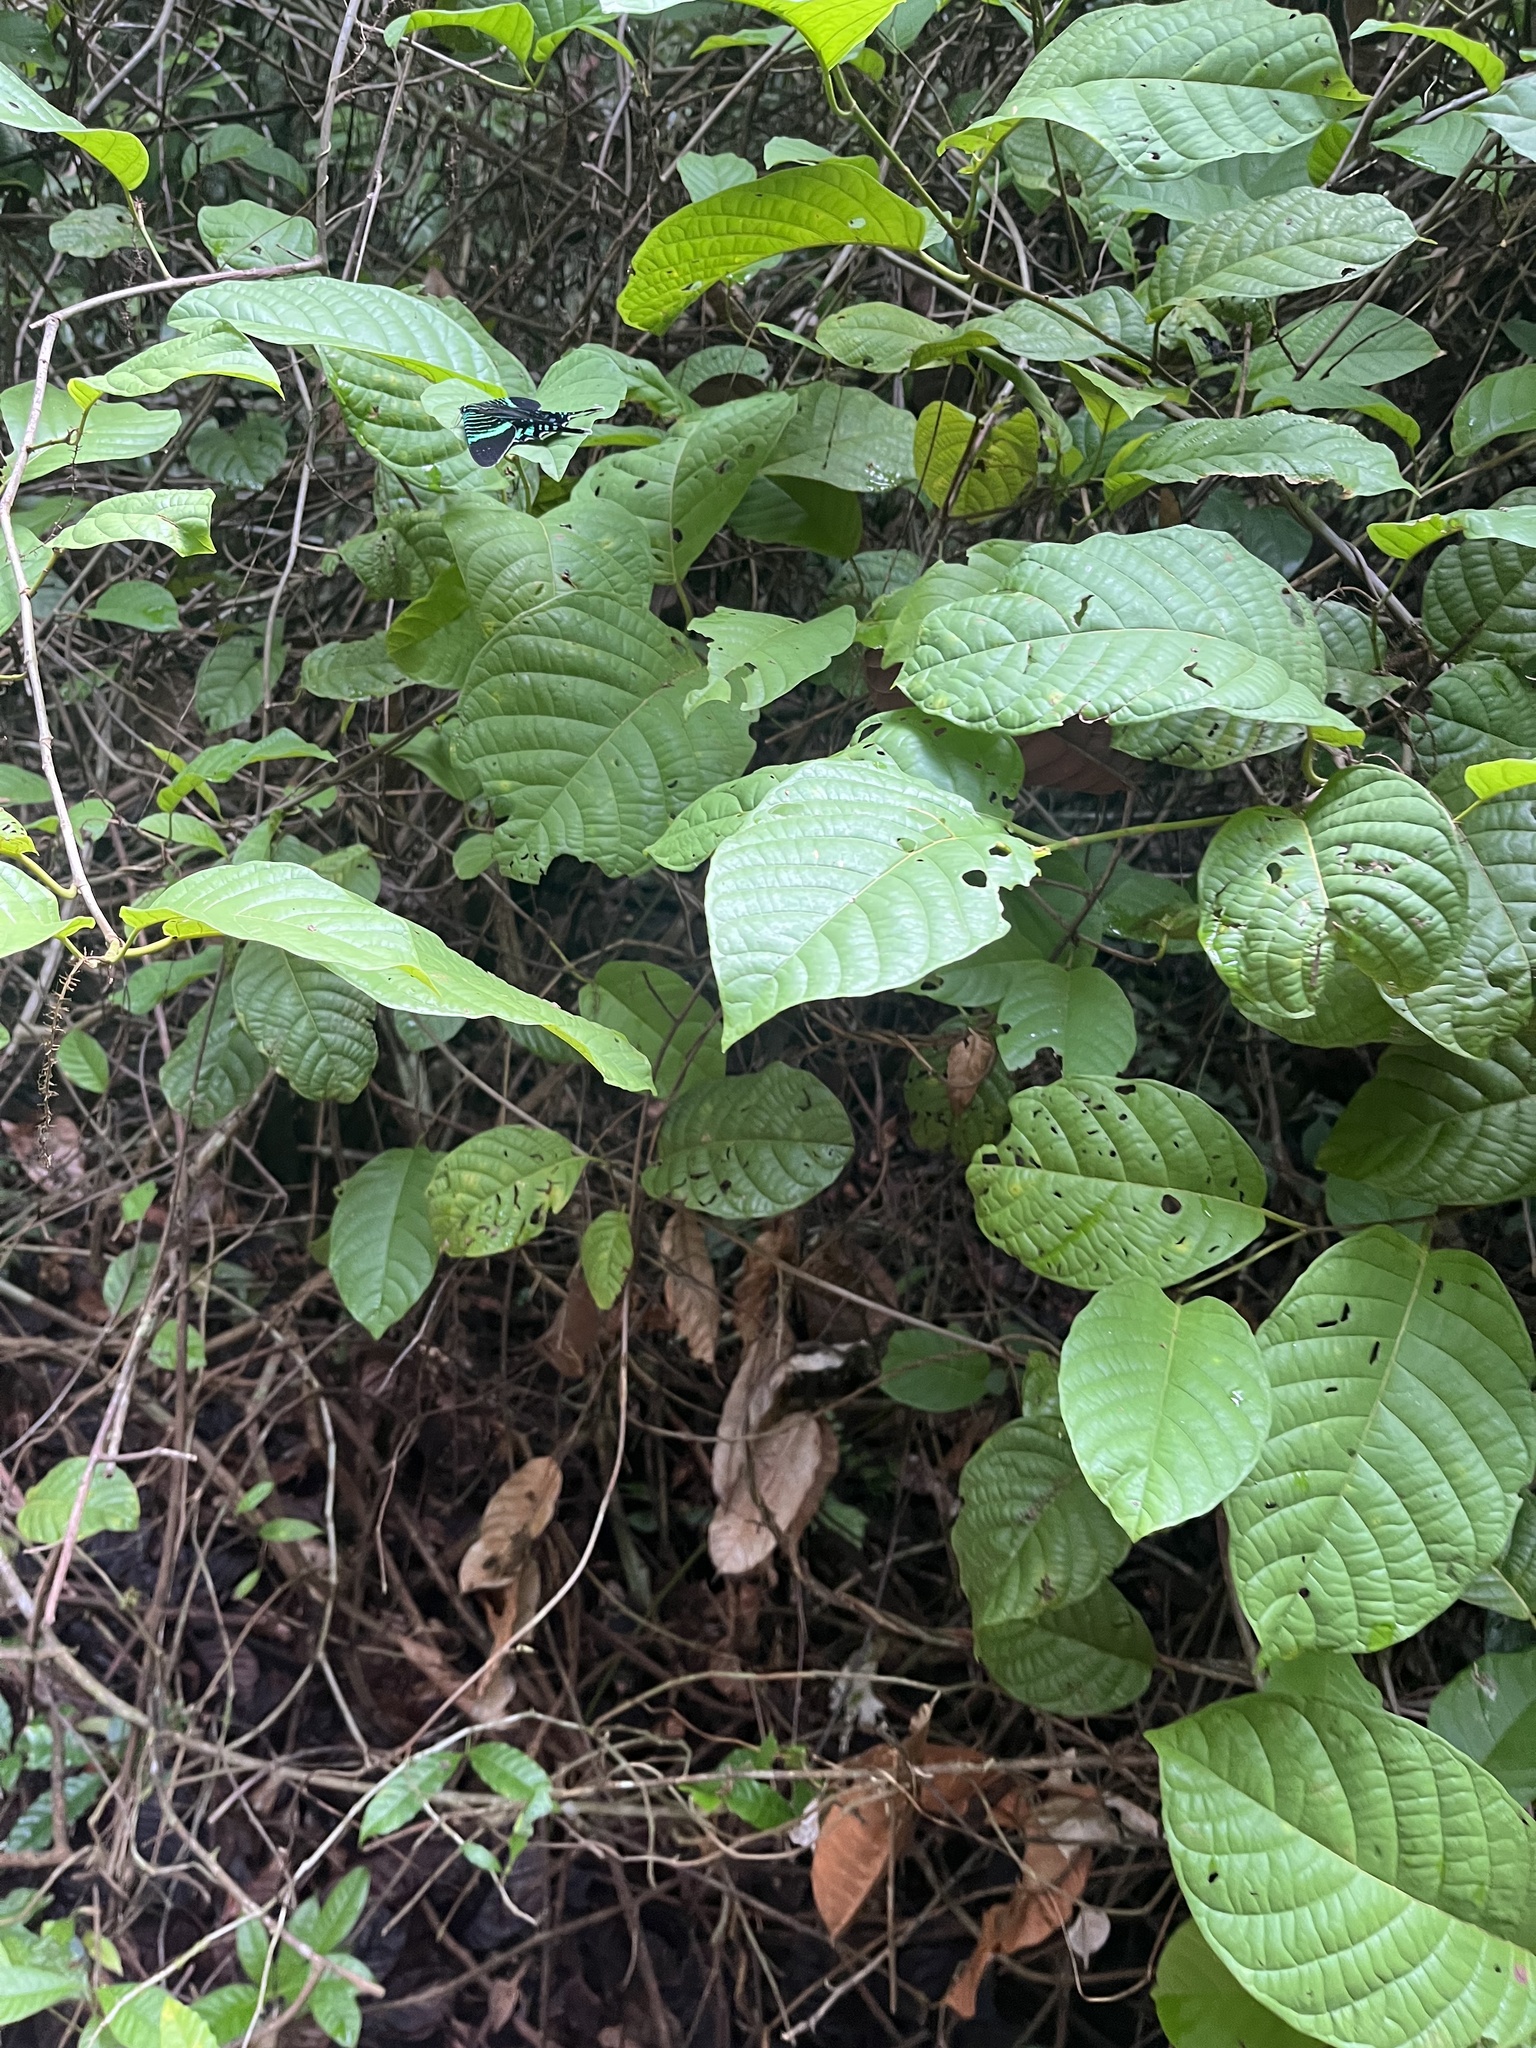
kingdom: Animalia
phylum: Arthropoda
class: Insecta
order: Lepidoptera
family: Uraniidae
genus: Urania
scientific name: Urania fulgens
